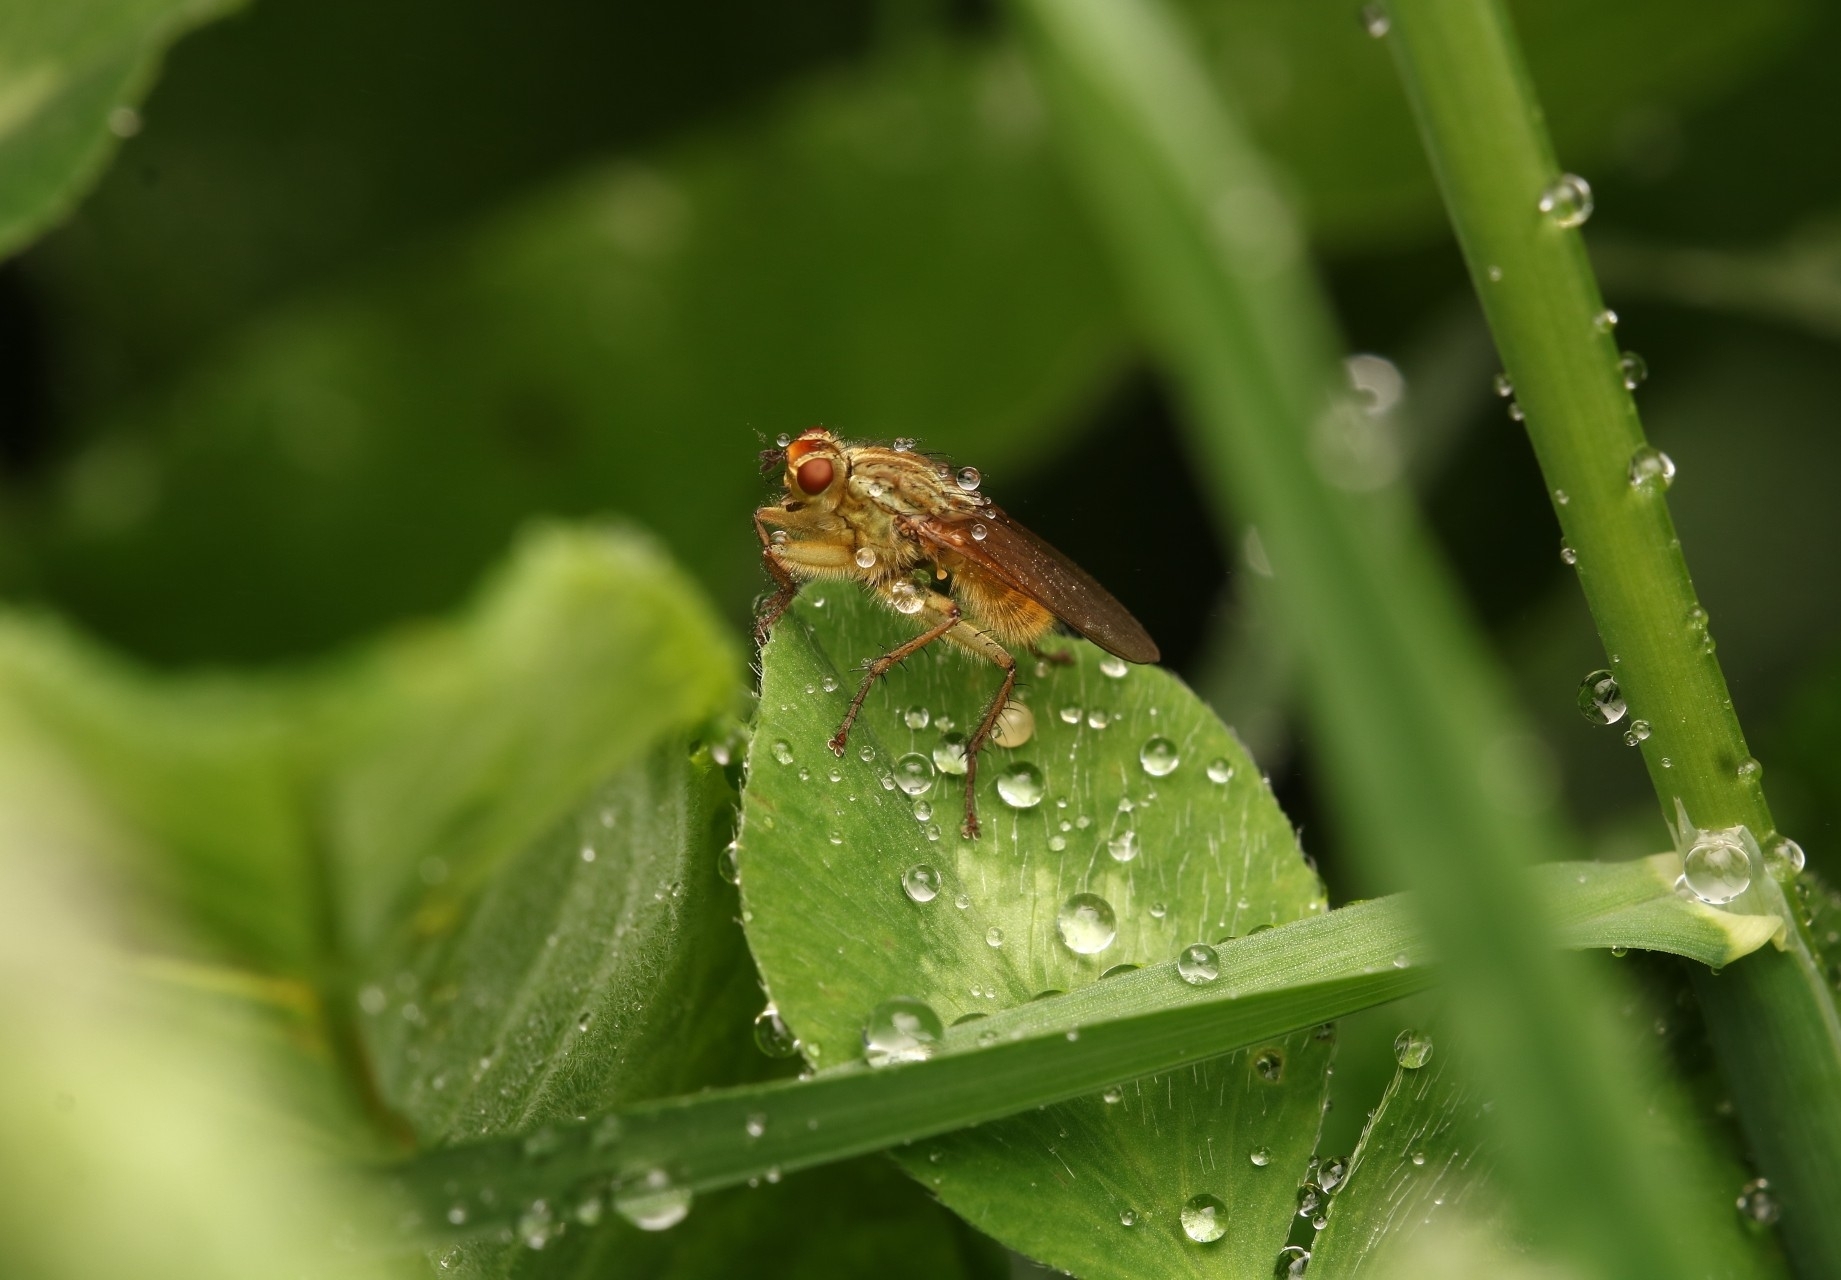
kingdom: Animalia
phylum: Arthropoda
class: Insecta
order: Diptera
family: Scathophagidae
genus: Scathophaga
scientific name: Scathophaga stercoraria
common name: Yellow dung fly
